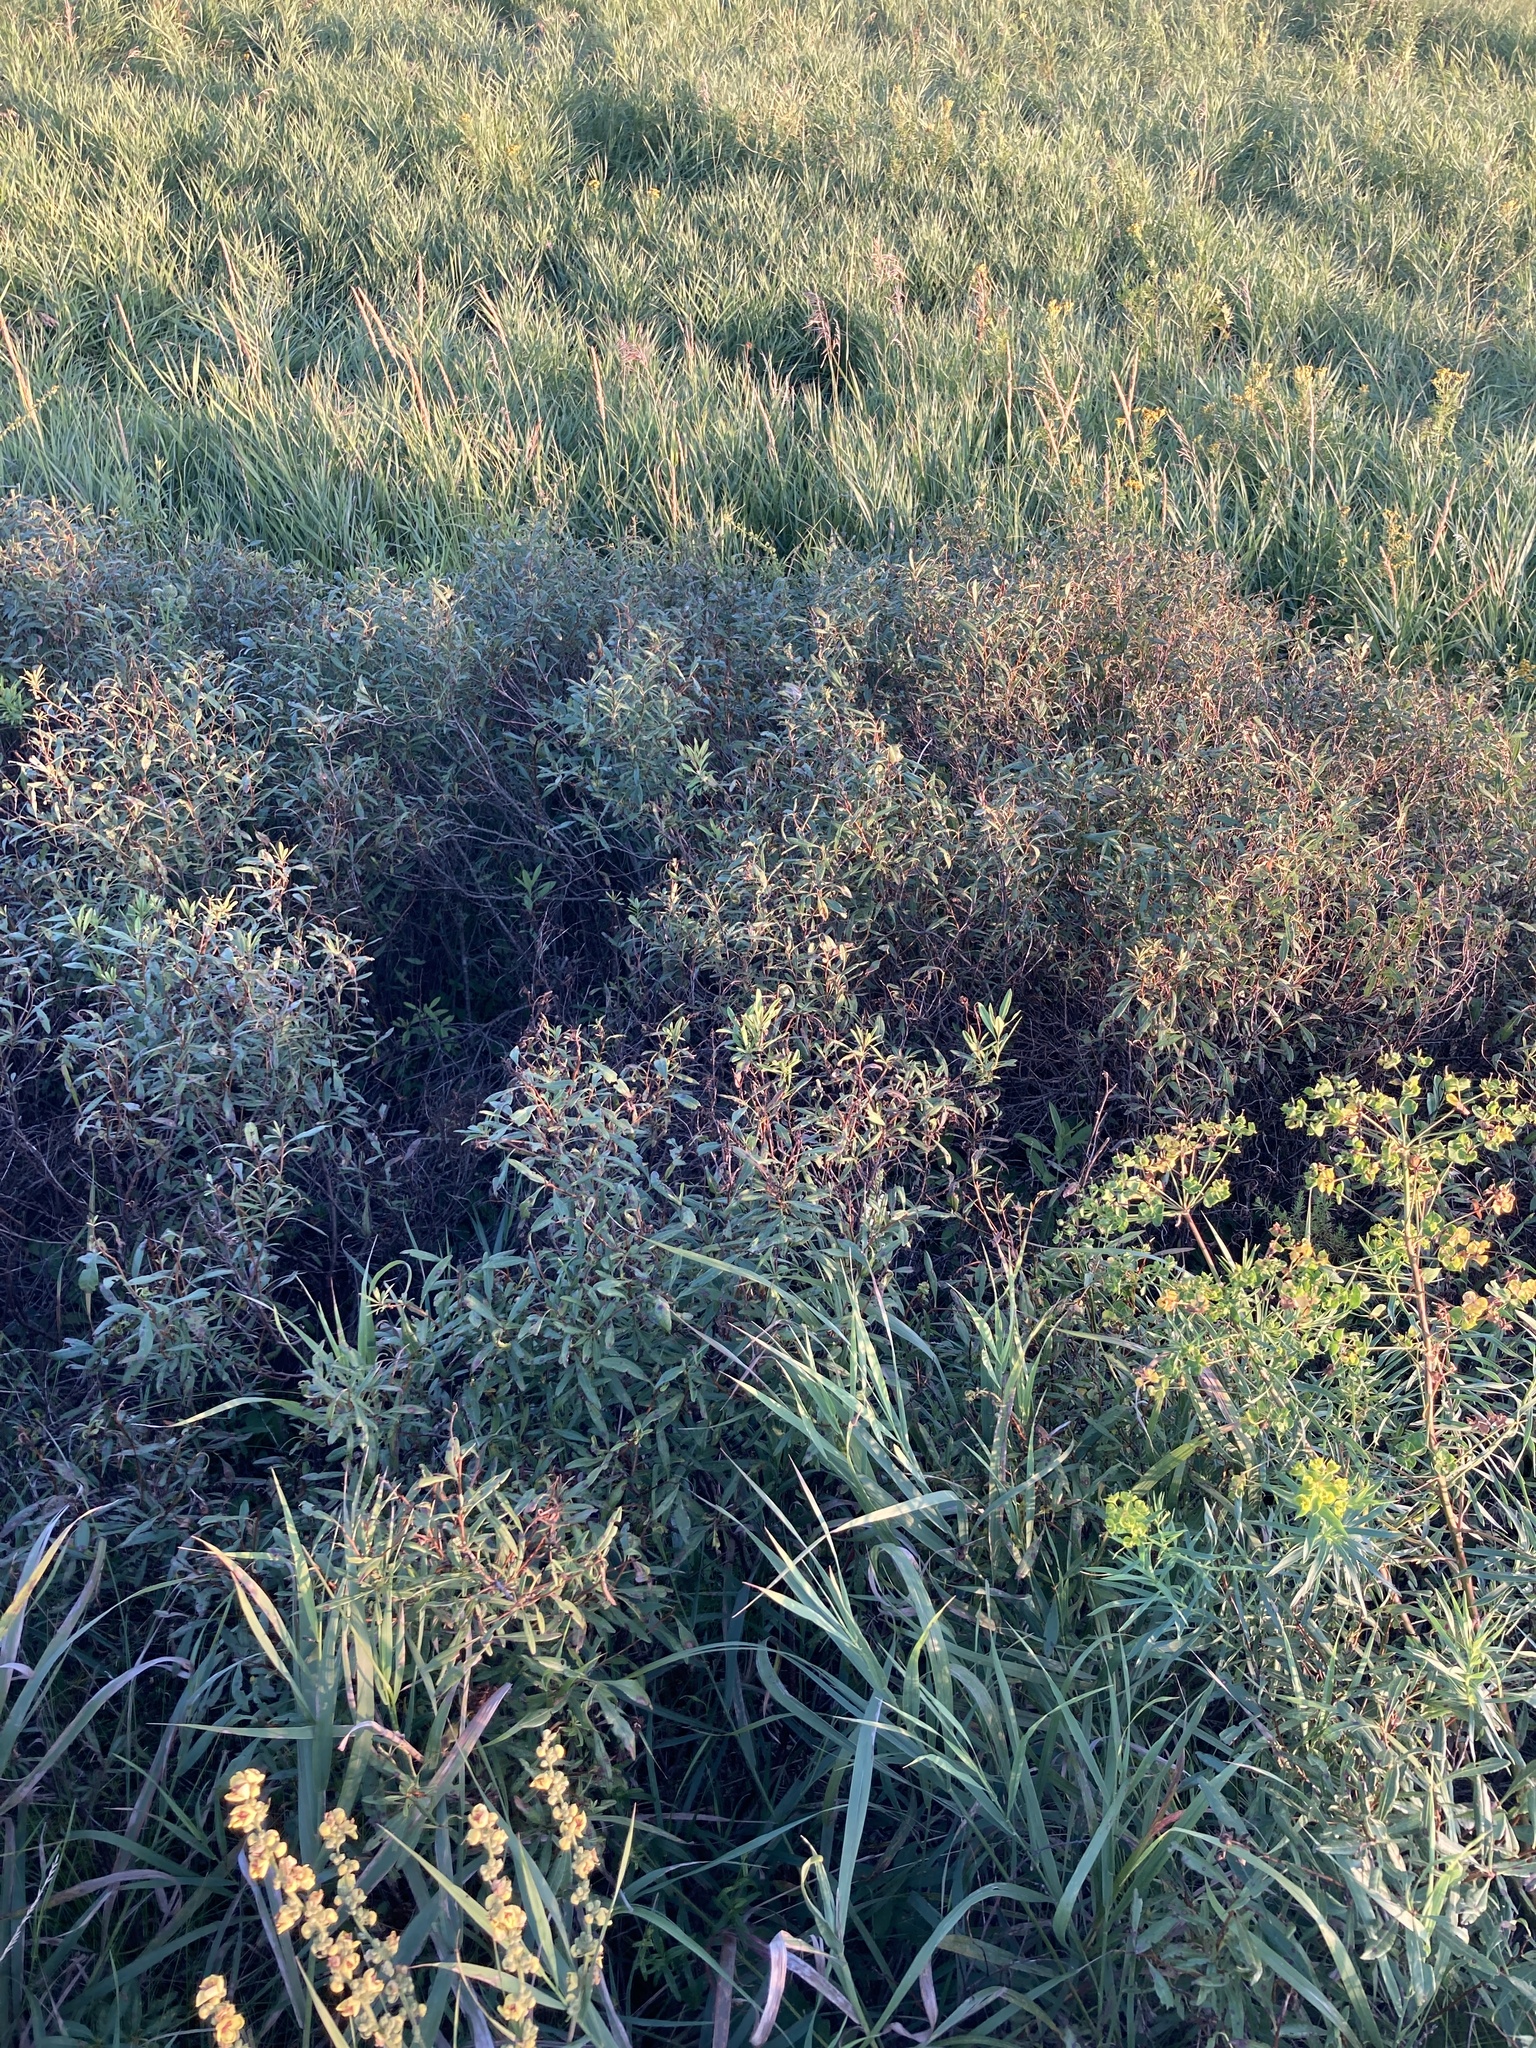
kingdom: Plantae
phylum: Tracheophyta
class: Magnoliopsida
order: Rosales
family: Rosaceae
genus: Prunus
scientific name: Prunus tenella
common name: Dwarf russian almond
